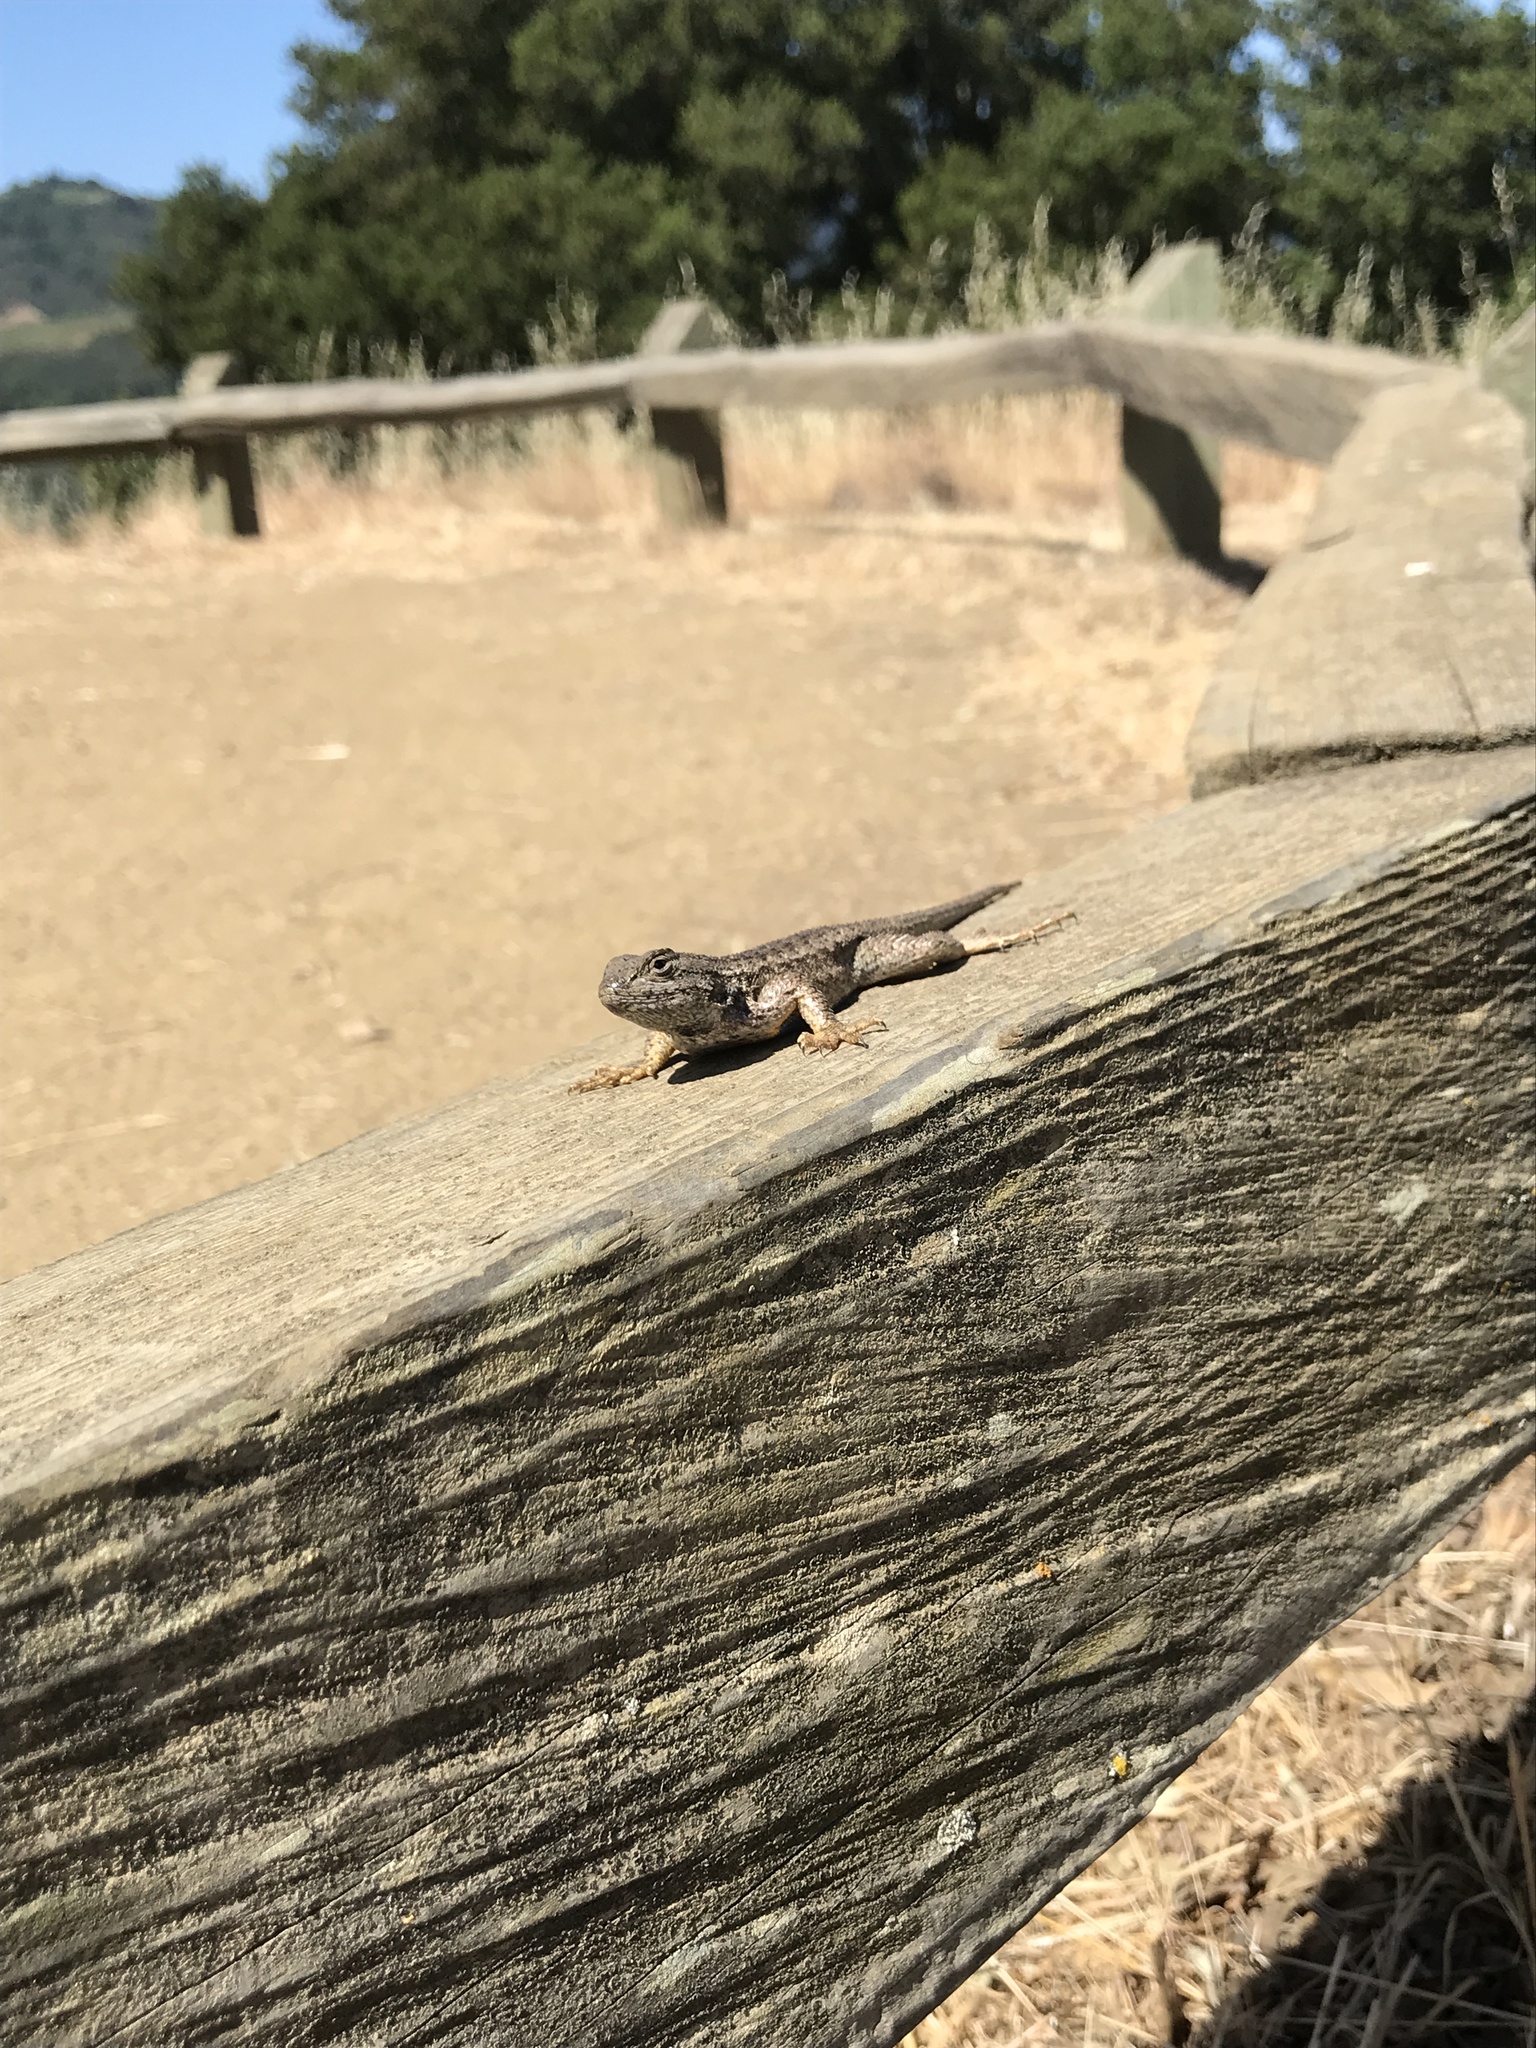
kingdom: Animalia
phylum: Chordata
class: Squamata
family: Phrynosomatidae
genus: Sceloporus
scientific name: Sceloporus occidentalis
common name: Western fence lizard
